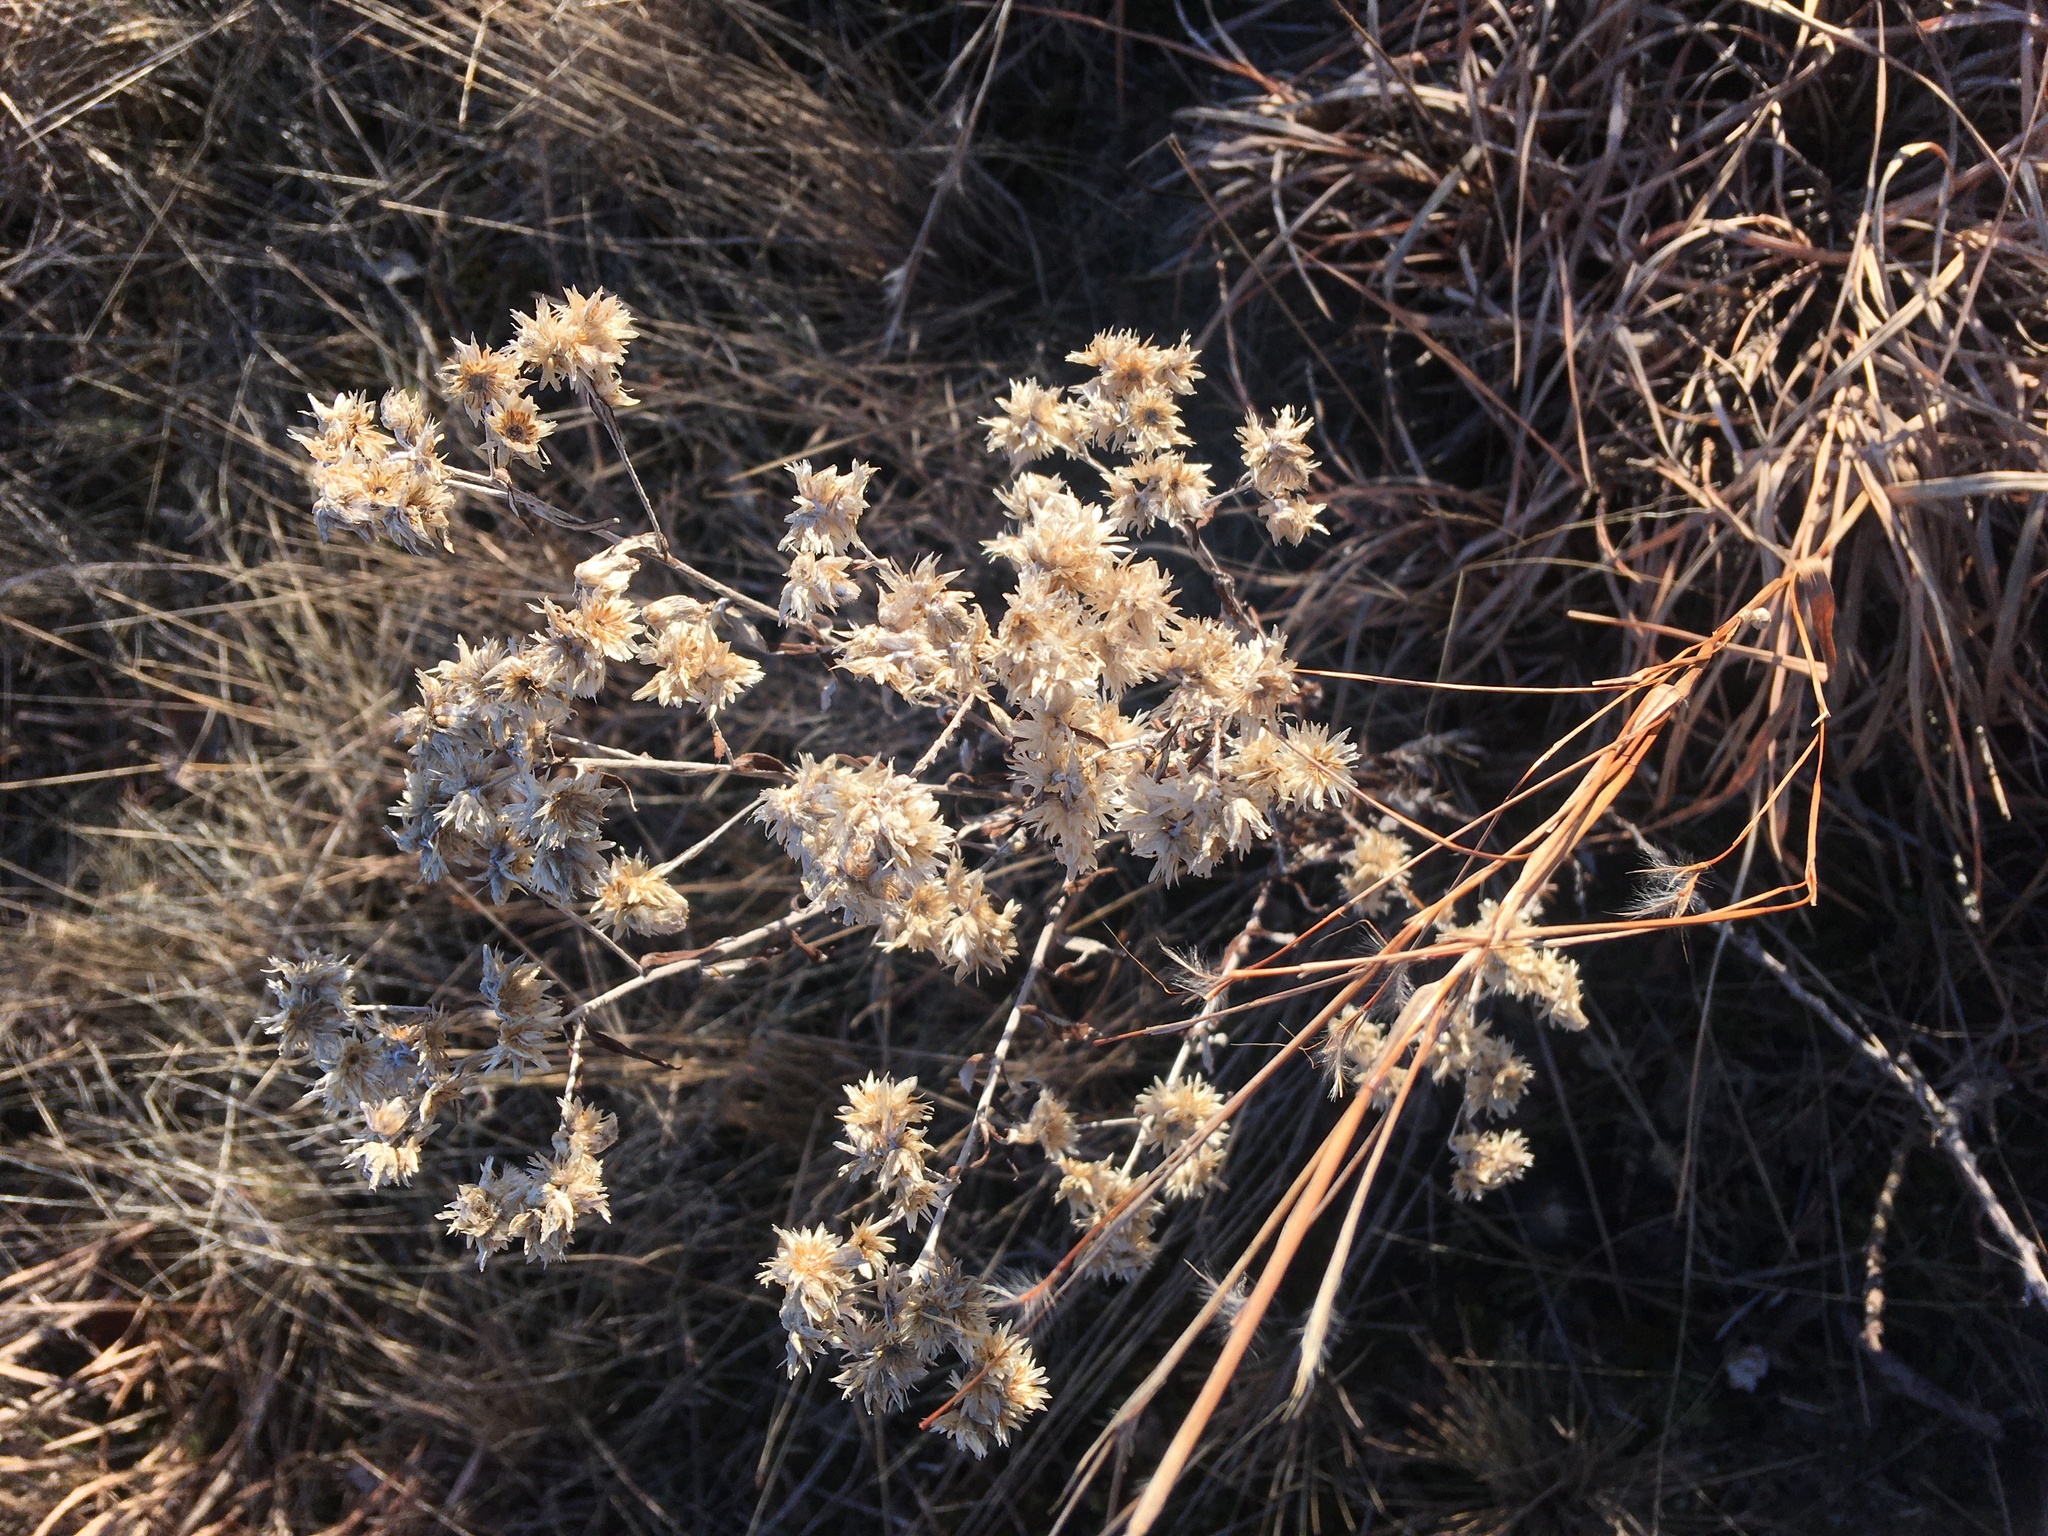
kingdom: Plantae
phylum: Tracheophyta
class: Magnoliopsida
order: Asterales
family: Asteraceae
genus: Pseudognaphalium
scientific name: Pseudognaphalium obtusifolium
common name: Eastern rabbit-tobacco
